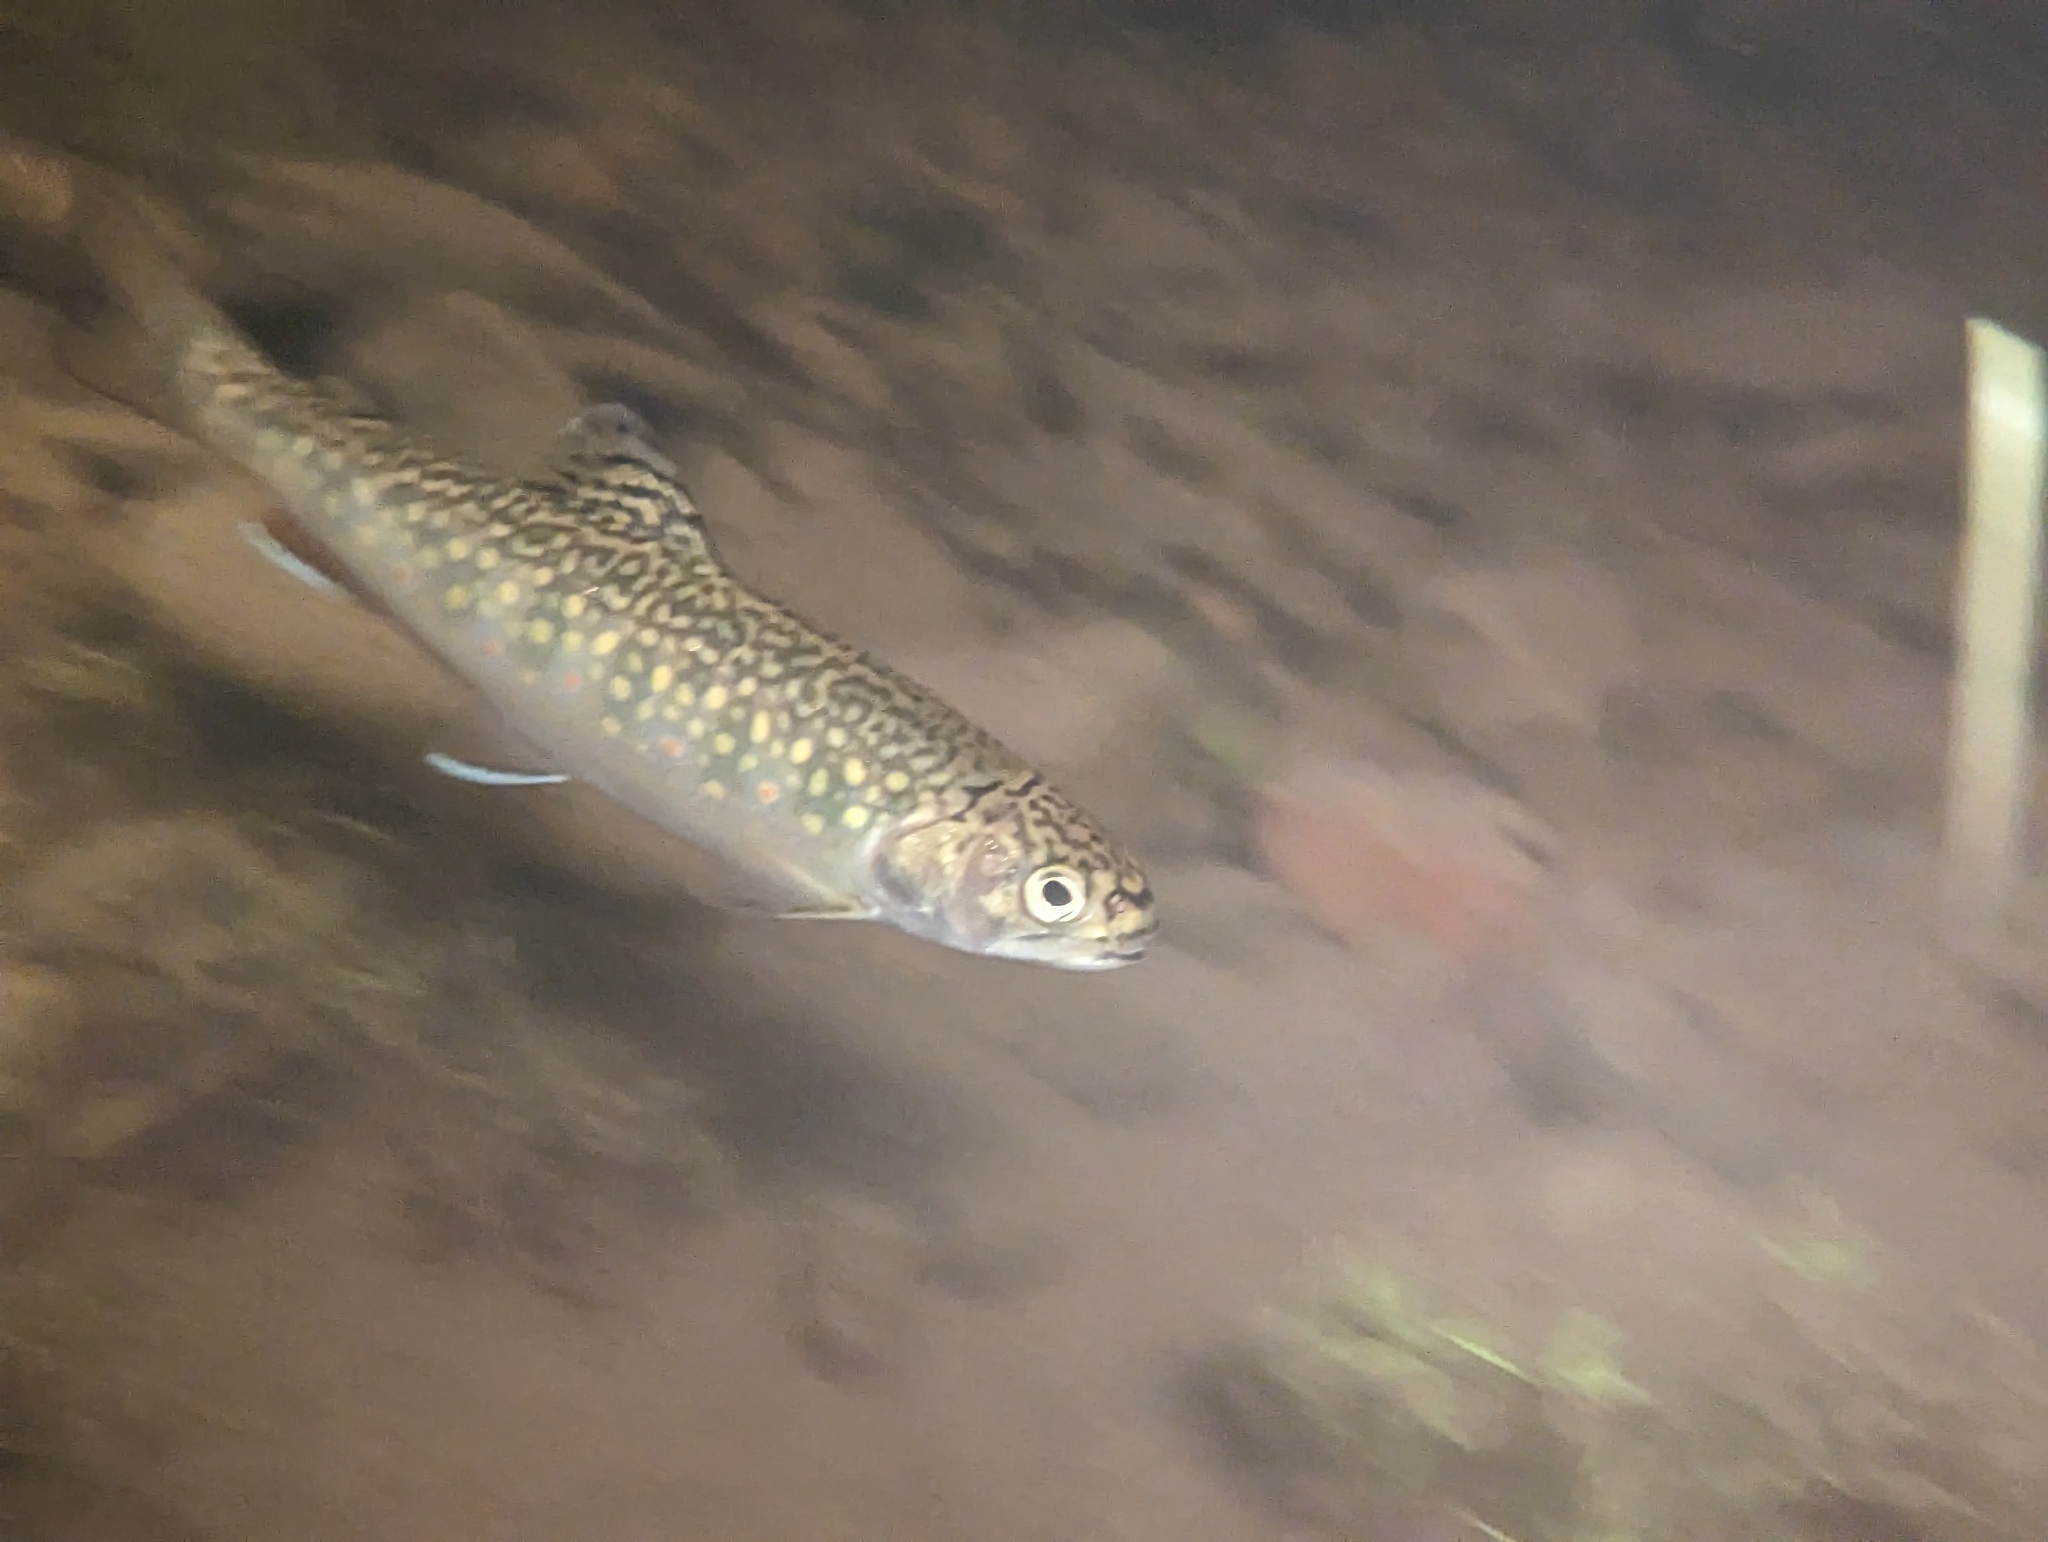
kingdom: Animalia
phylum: Chordata
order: Salmoniformes
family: Salmonidae
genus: Salvelinus
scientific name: Salvelinus fontinalis
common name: Brook trout
